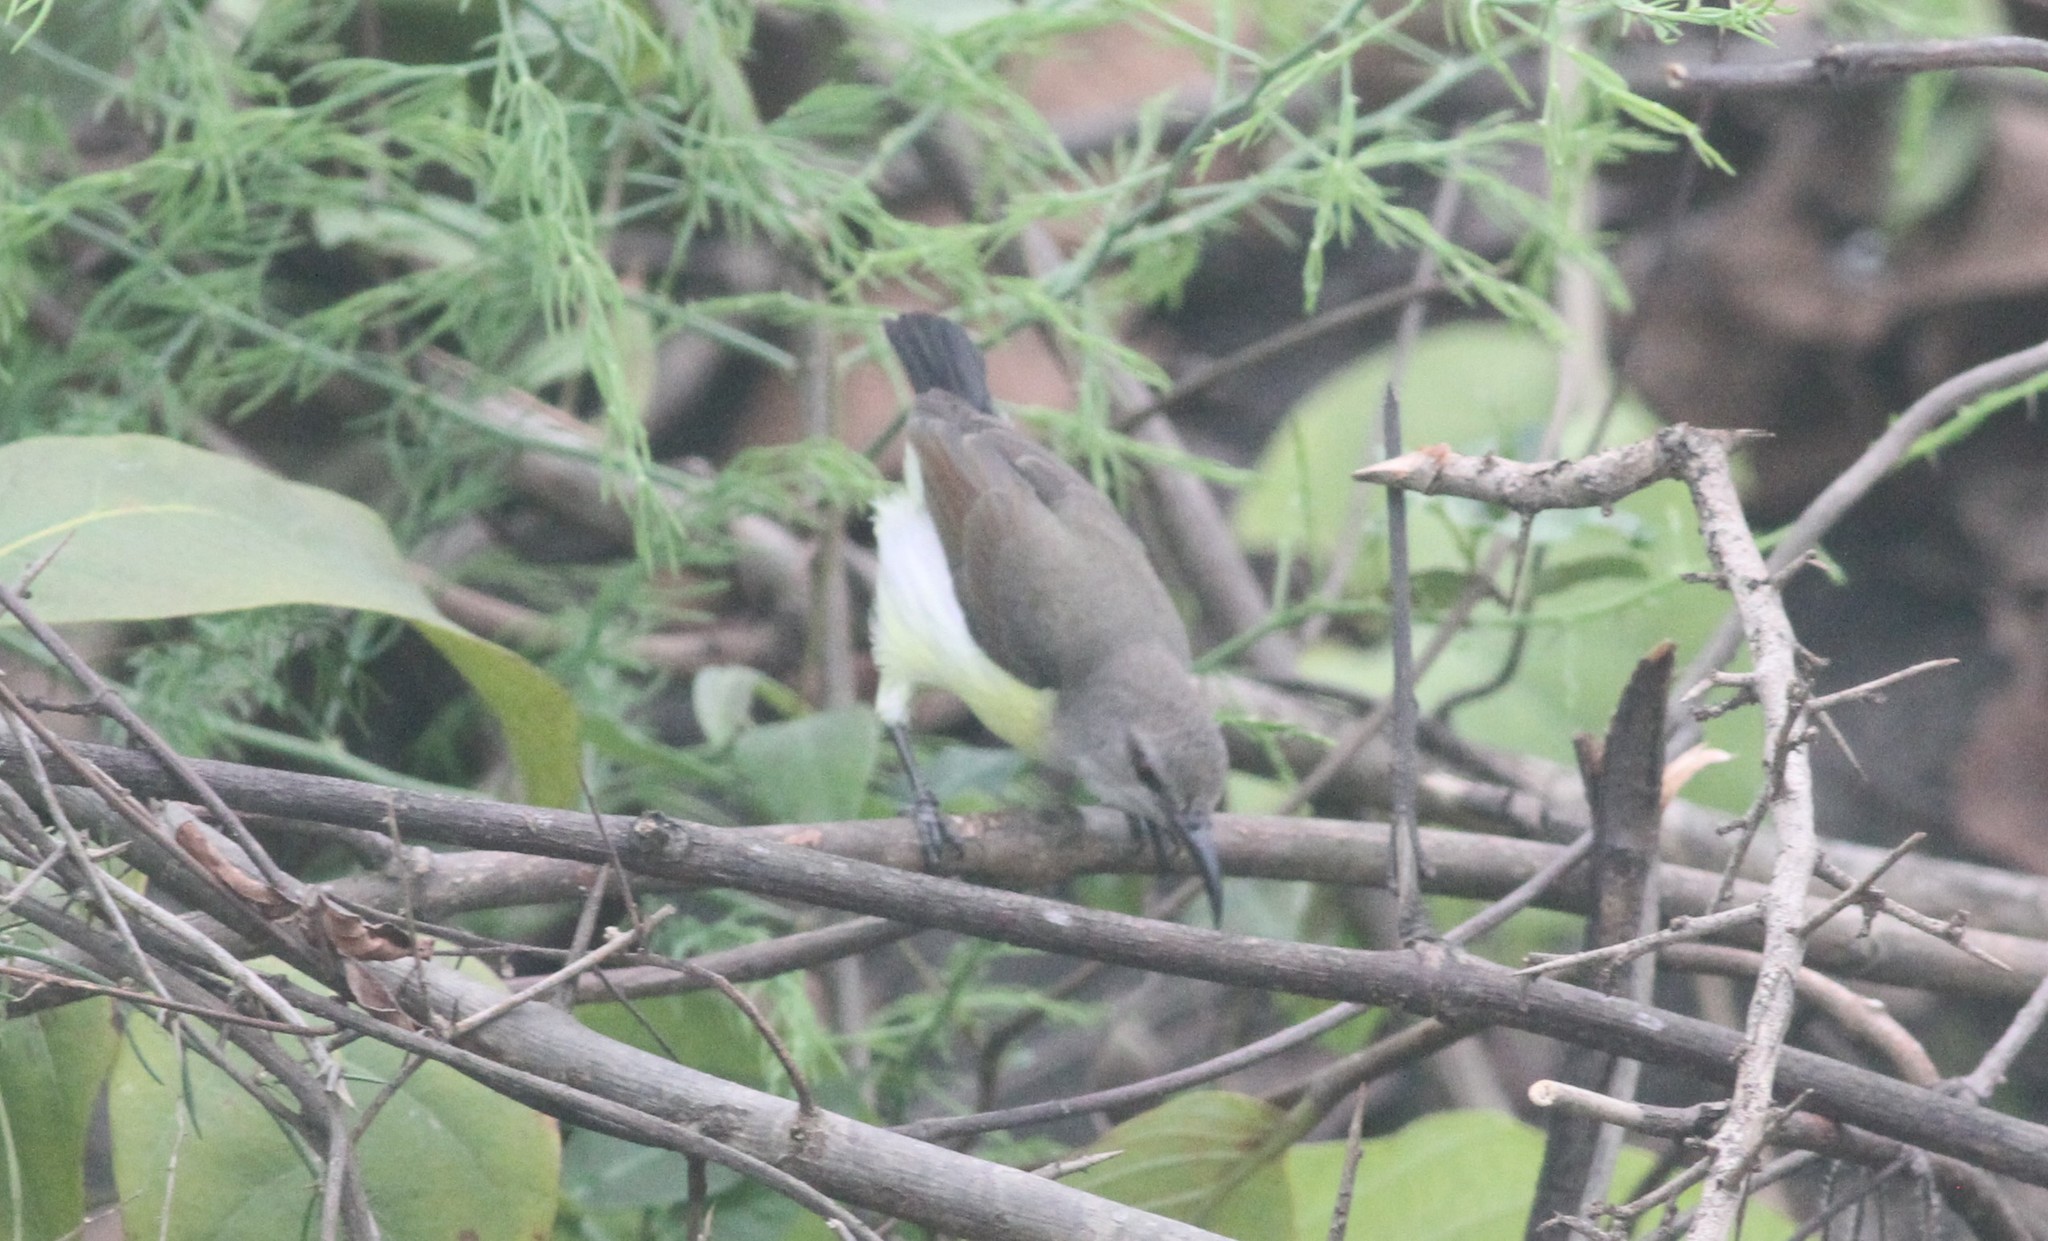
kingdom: Animalia
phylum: Chordata
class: Aves
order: Passeriformes
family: Nectariniidae
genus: Leptocoma
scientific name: Leptocoma zeylonica
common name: Purple-rumped sunbird
